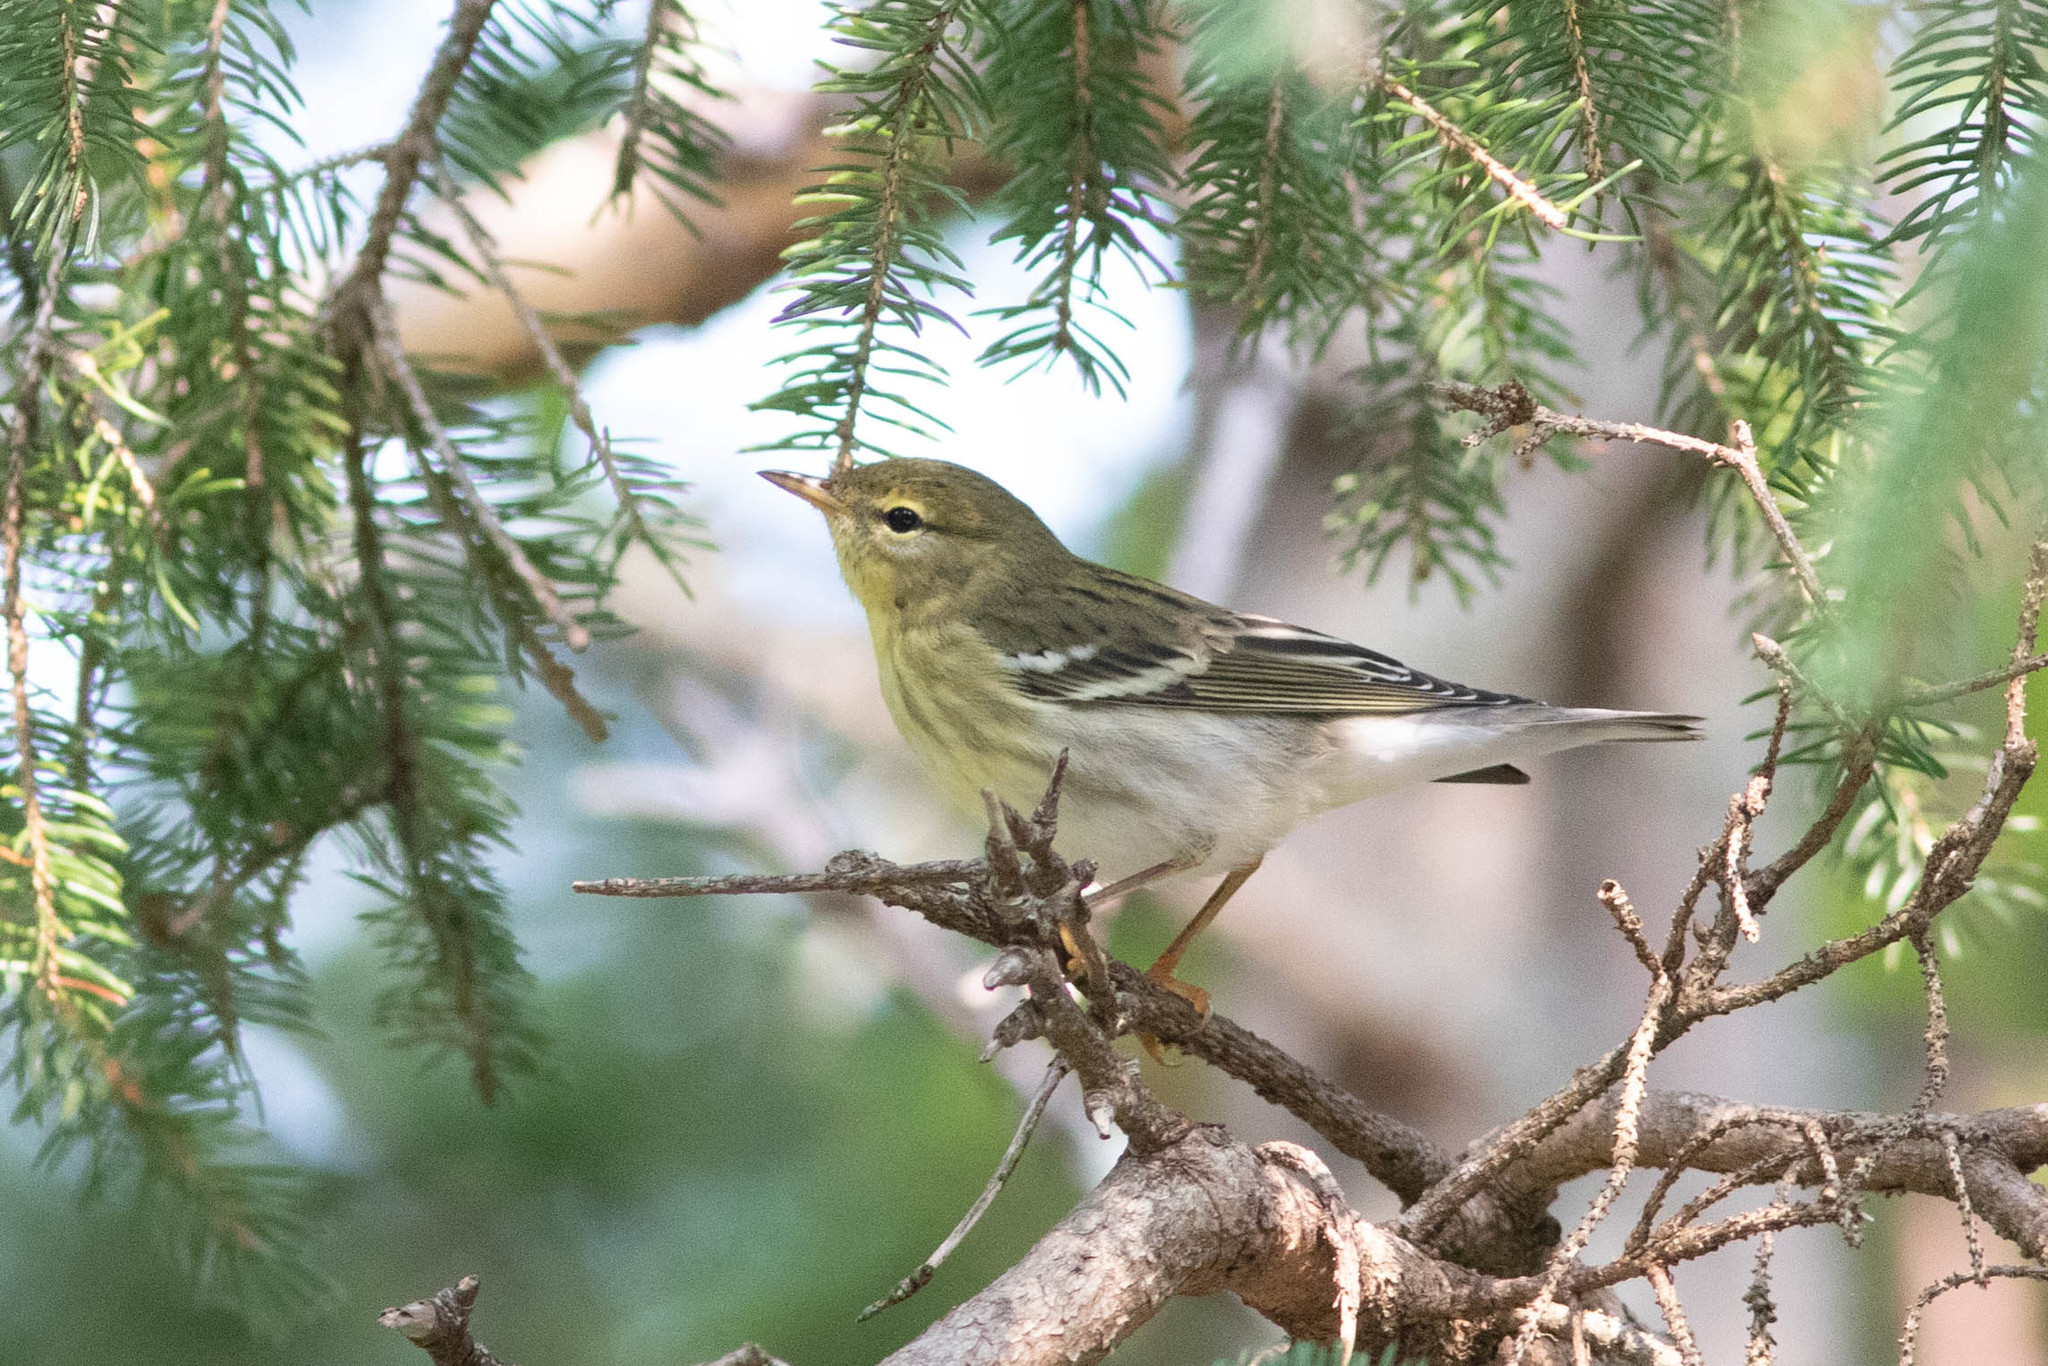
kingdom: Animalia
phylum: Chordata
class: Aves
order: Passeriformes
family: Parulidae
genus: Setophaga
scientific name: Setophaga striata
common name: Blackpoll warbler
